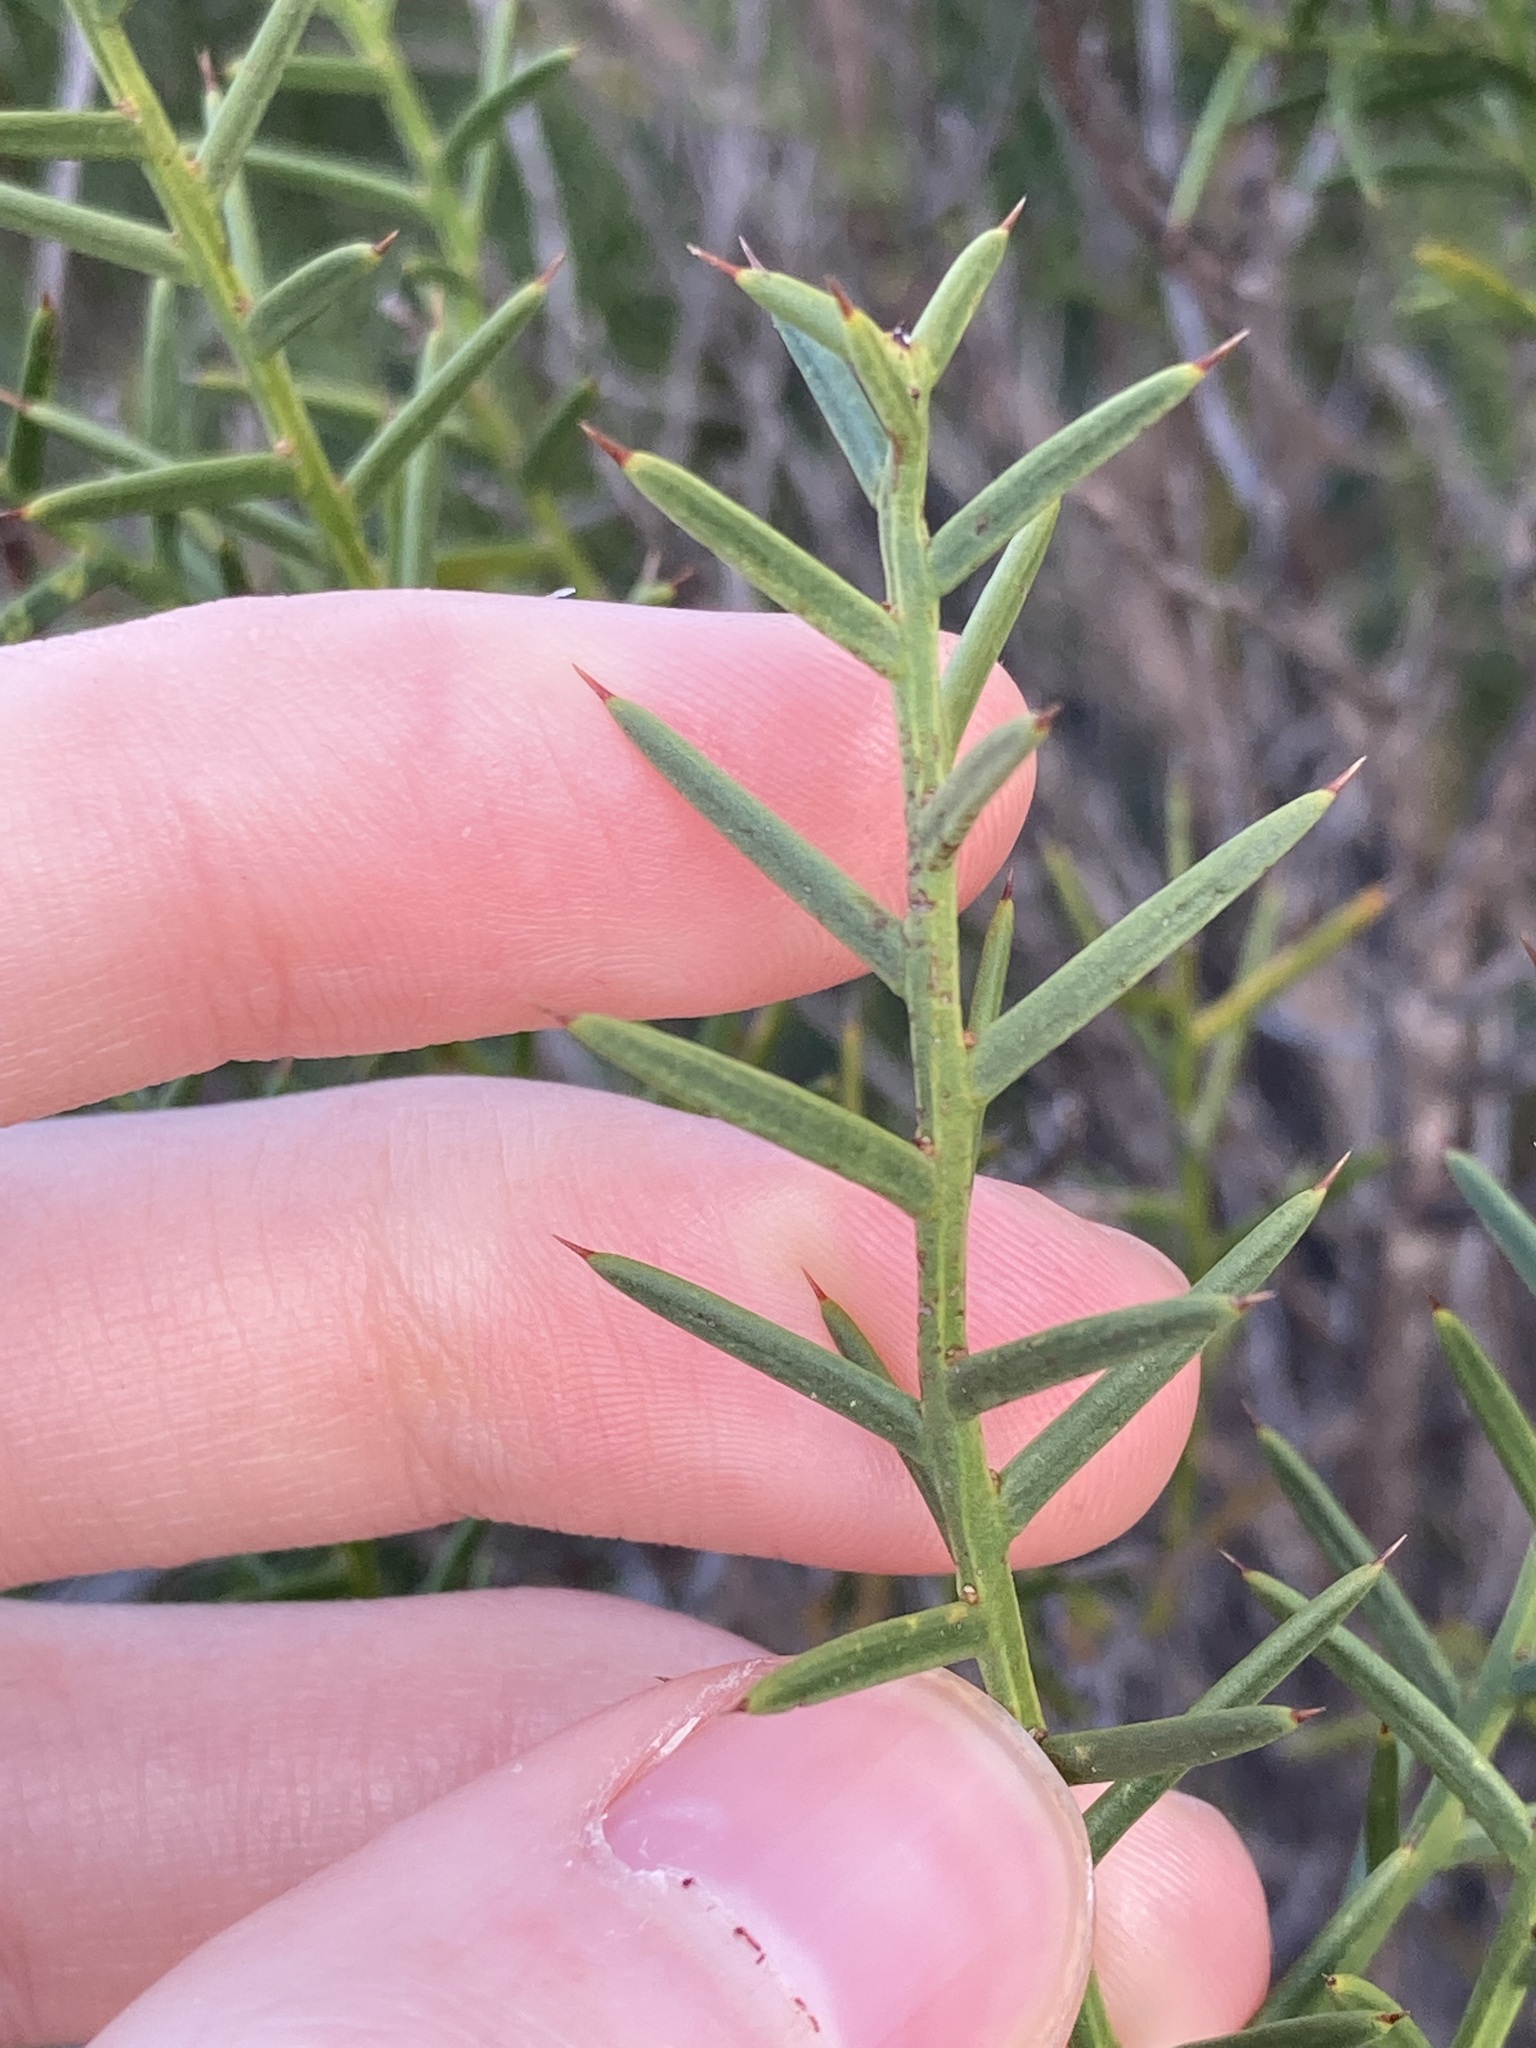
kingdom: Plantae
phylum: Tracheophyta
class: Magnoliopsida
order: Fabales
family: Fabaceae
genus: Daviesia
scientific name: Daviesia angulata
